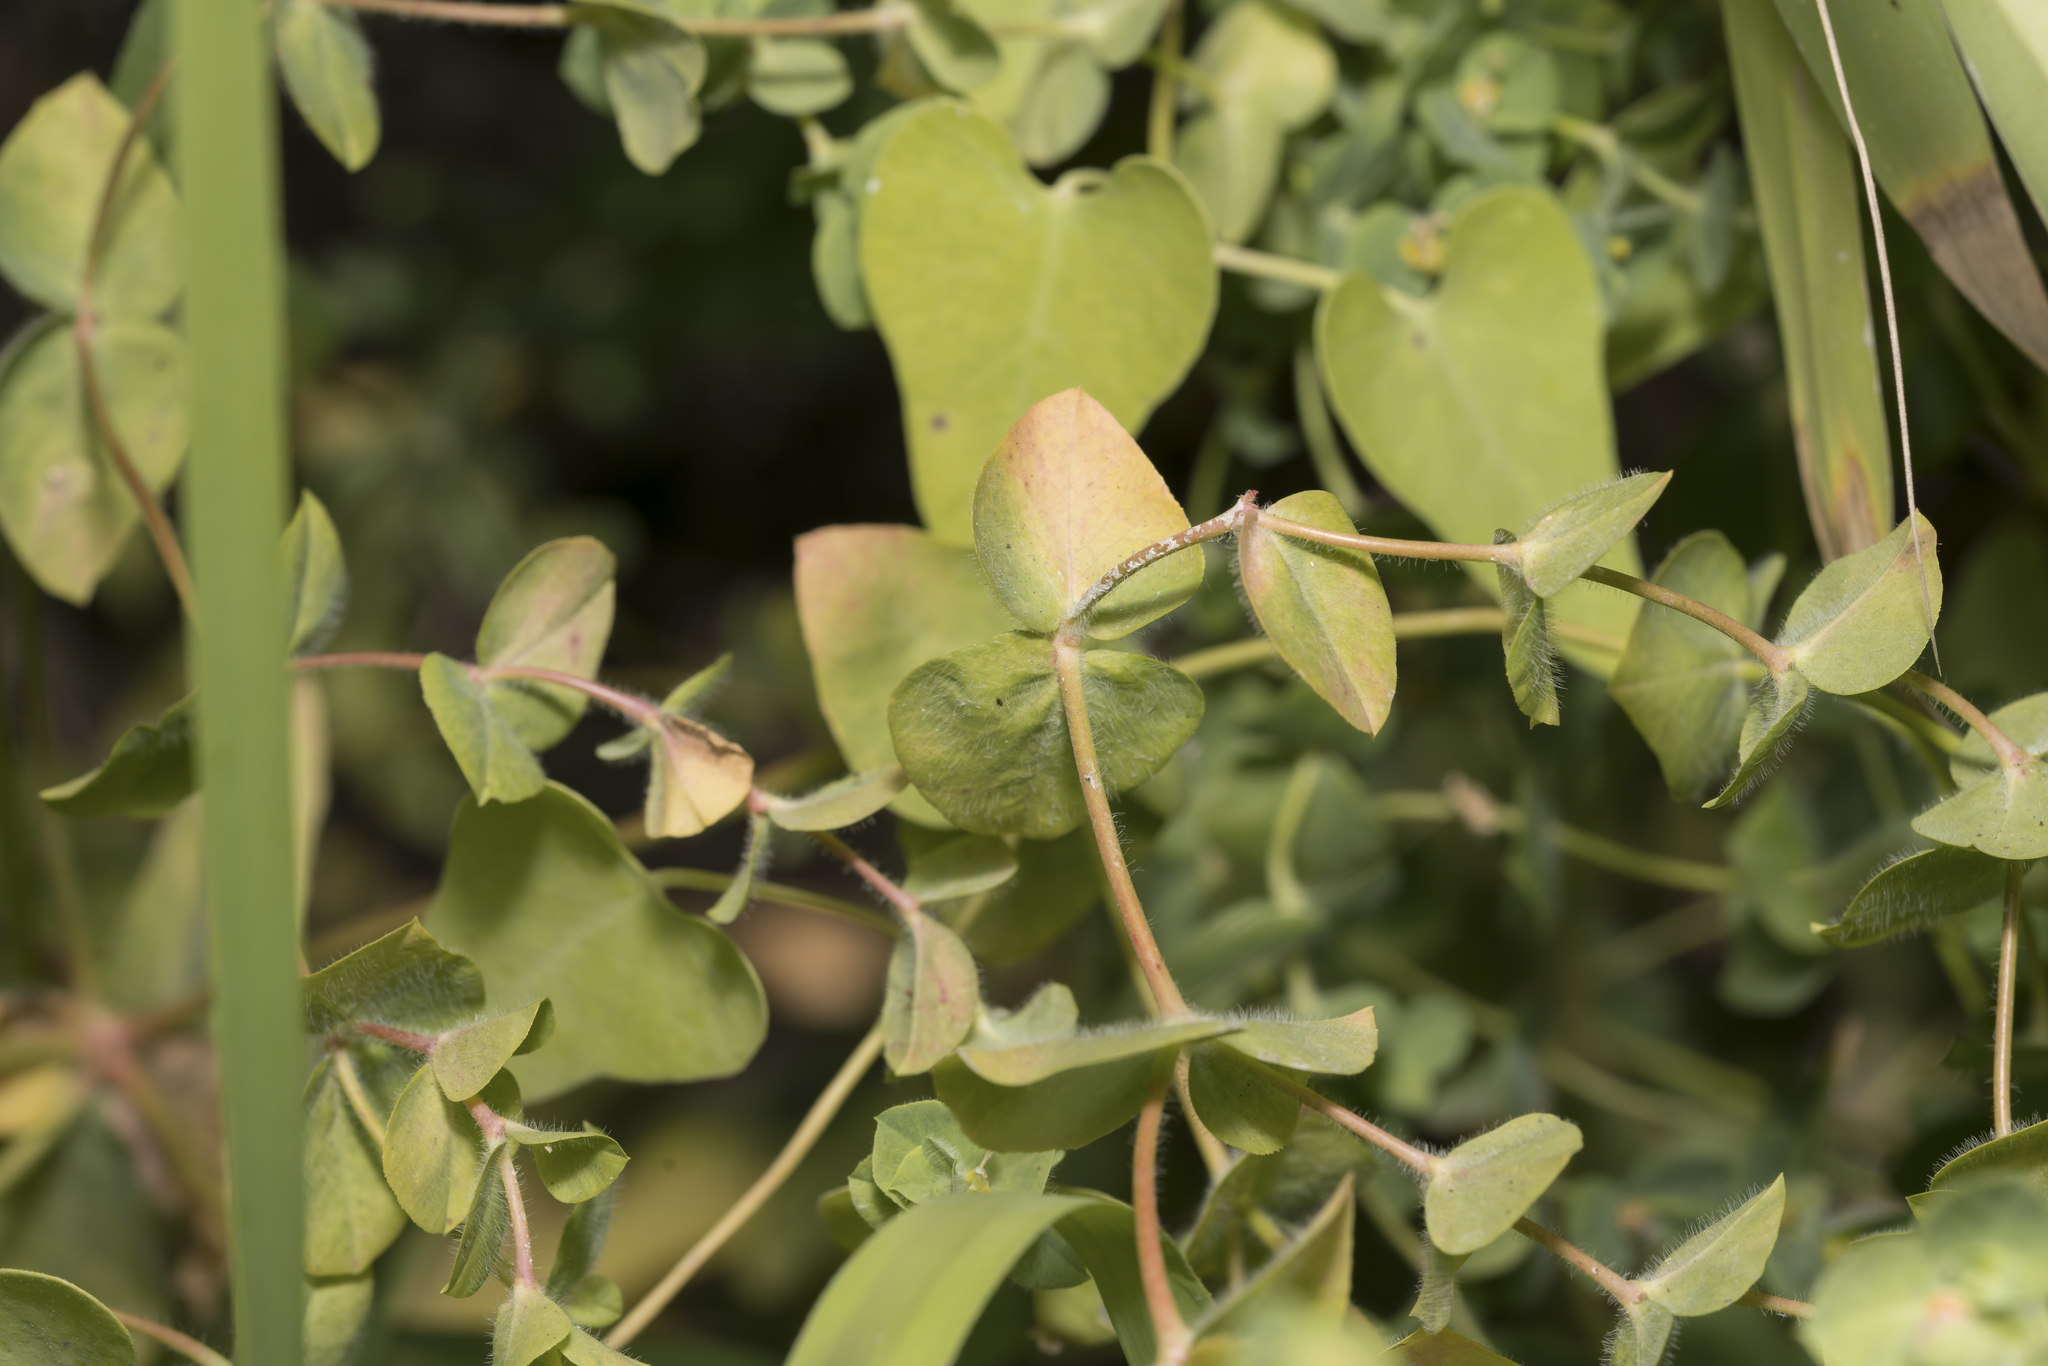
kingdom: Plantae
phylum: Tracheophyta
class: Magnoliopsida
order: Malpighiales
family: Euphorbiaceae
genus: Euphorbia
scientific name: Euphorbia hirsuta
